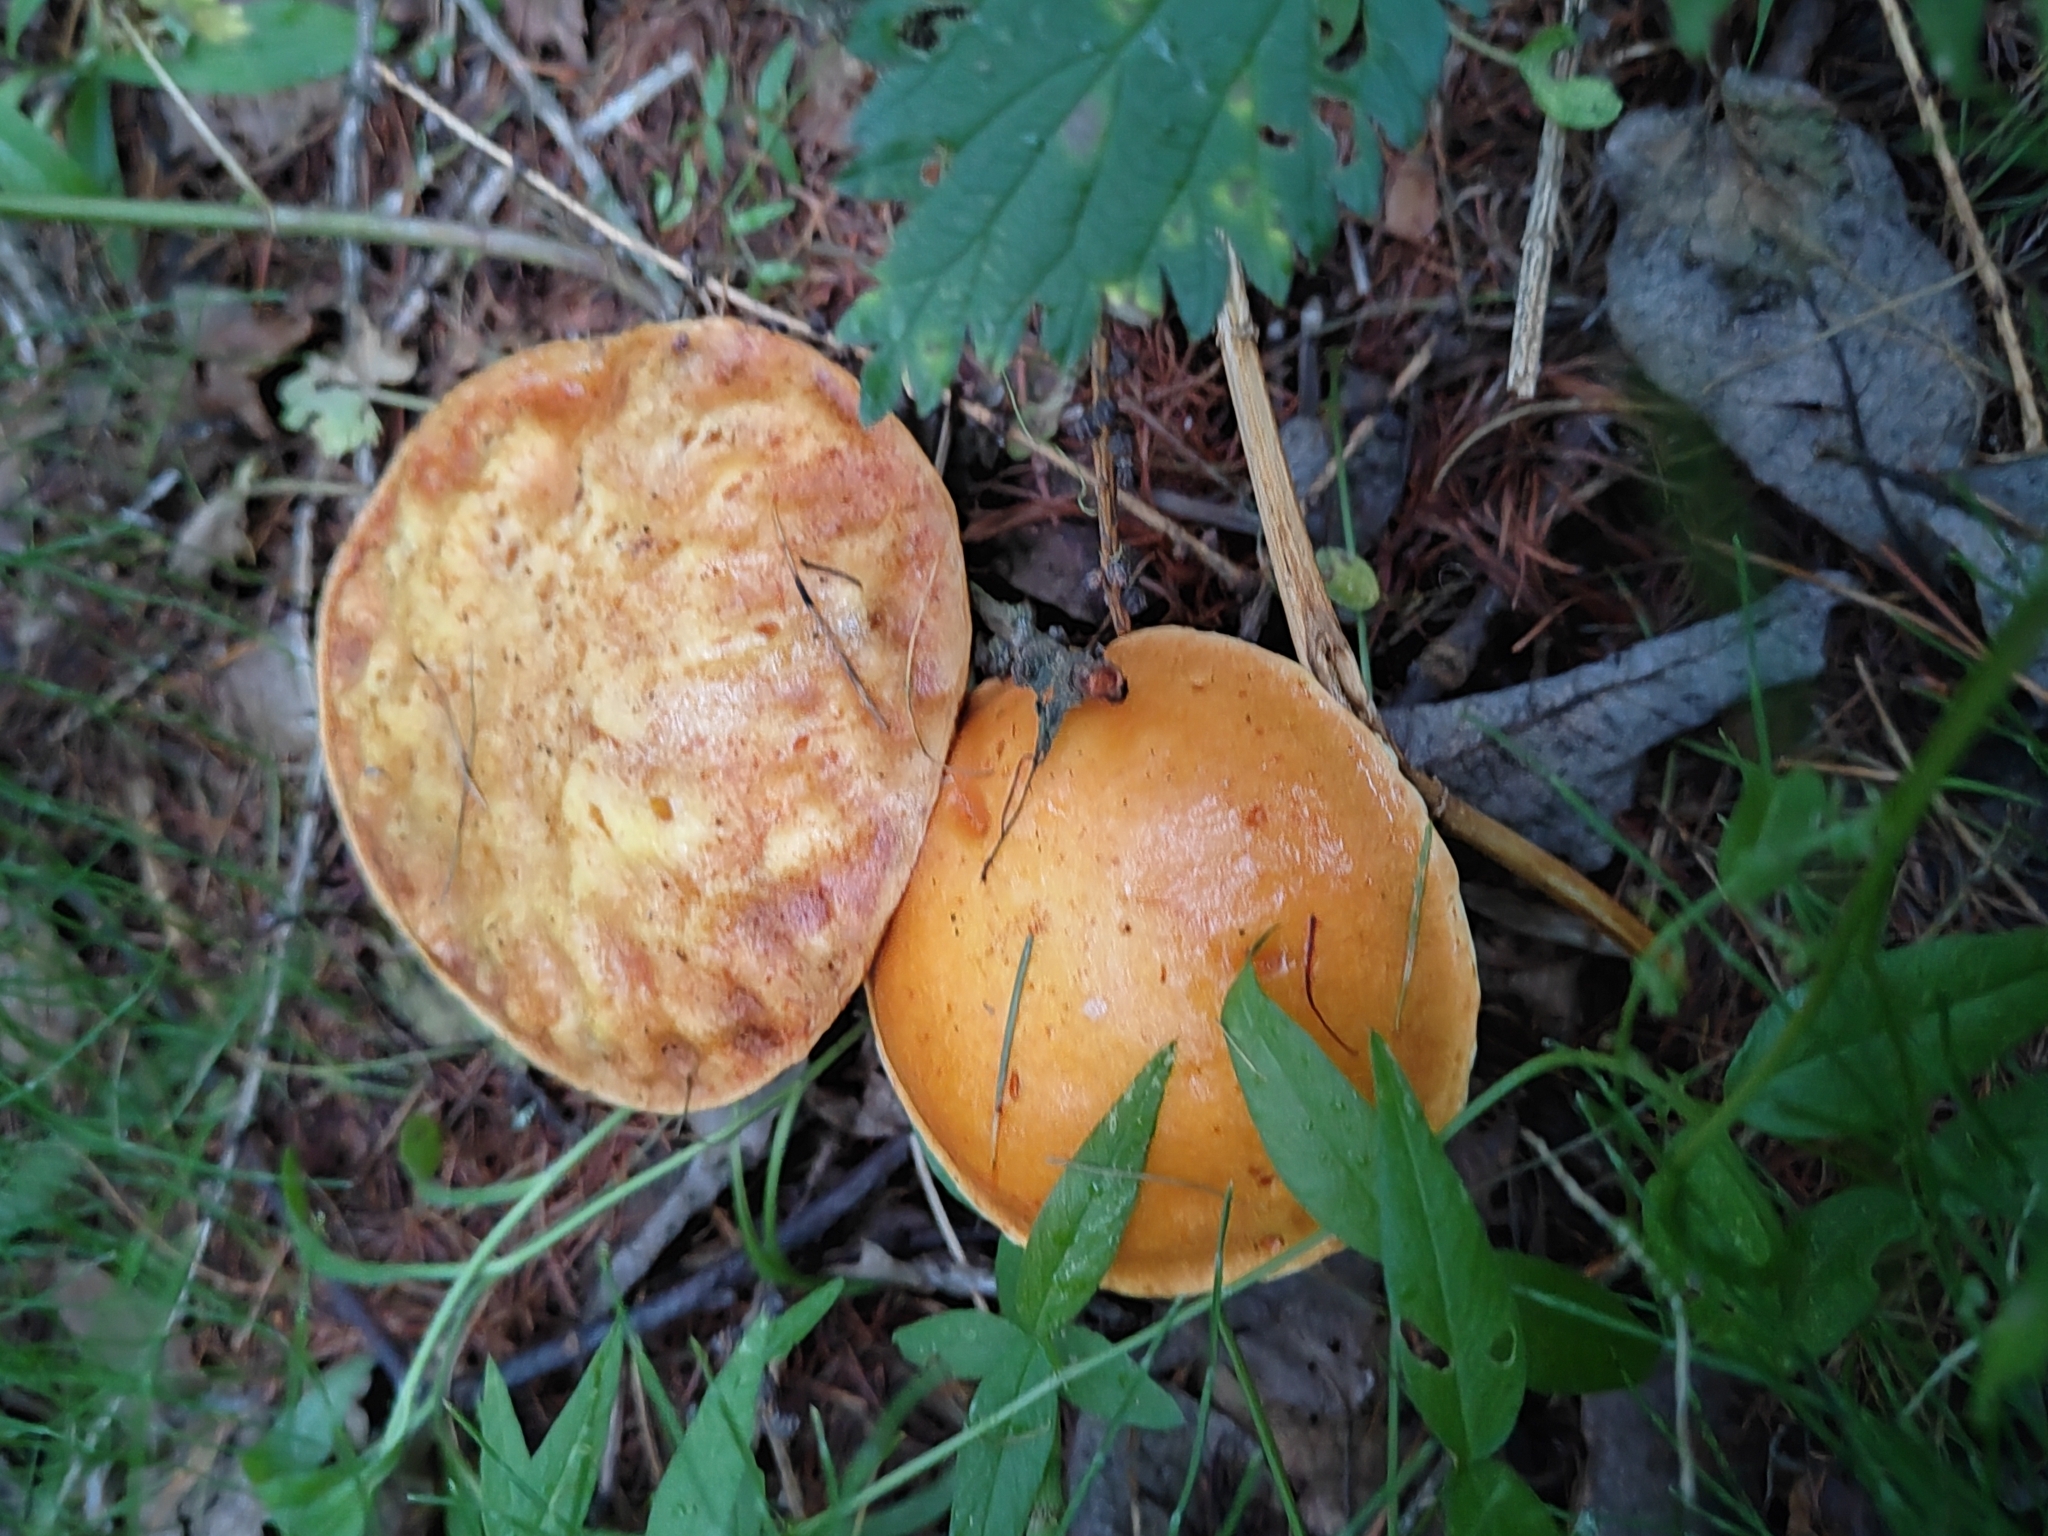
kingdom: Fungi
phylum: Basidiomycota
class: Agaricomycetes
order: Boletales
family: Suillaceae
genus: Suillus
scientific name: Suillus grevillei
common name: Larch bolete
